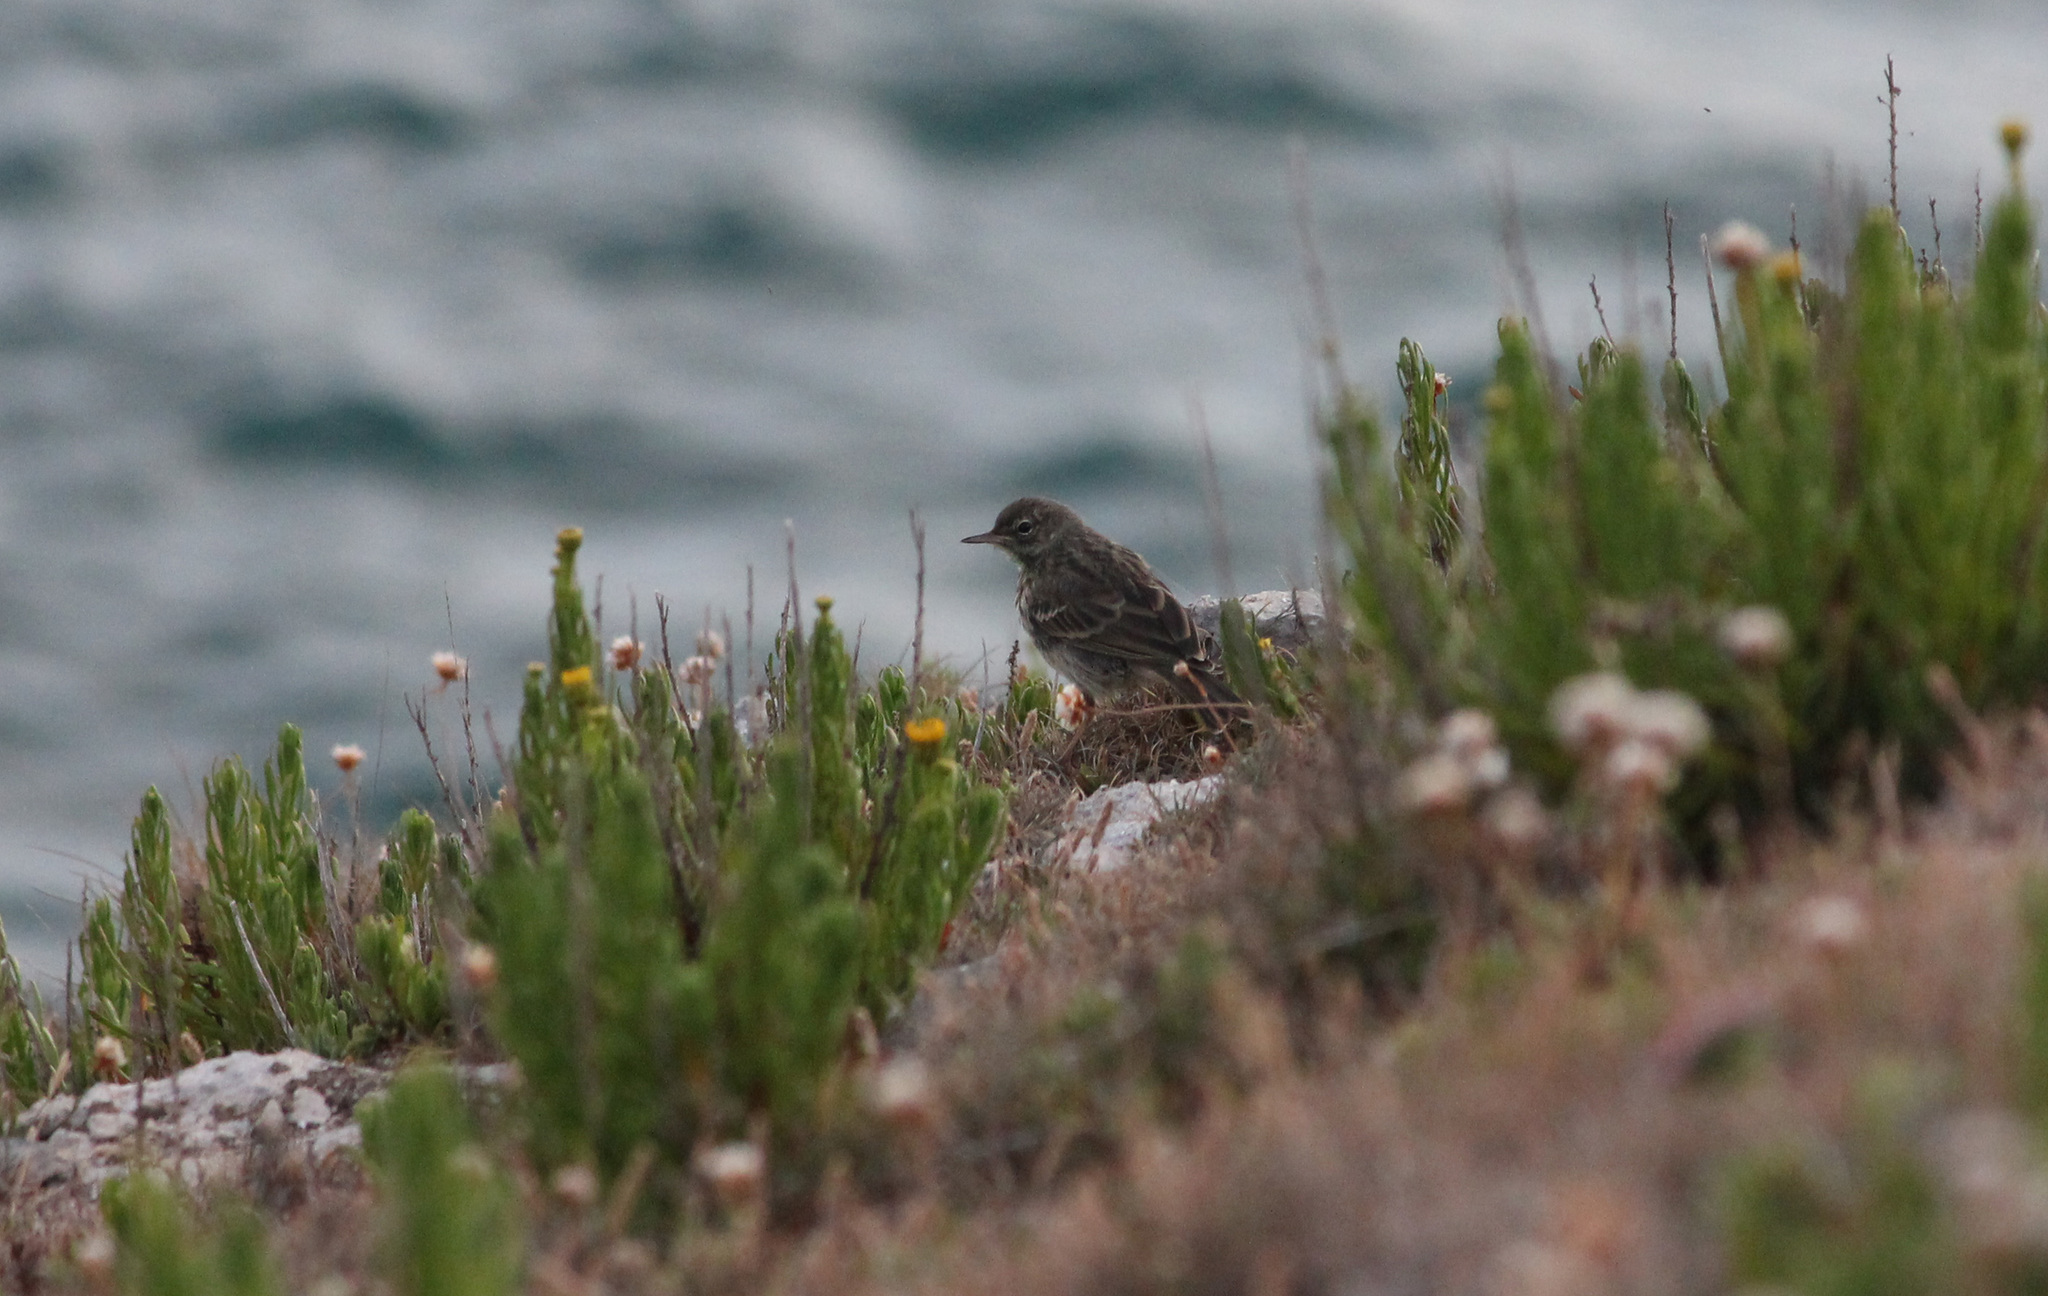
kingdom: Animalia
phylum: Chordata
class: Aves
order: Passeriformes
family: Motacillidae
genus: Anthus
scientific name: Anthus petrosus
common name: Eurasian rock pipit
